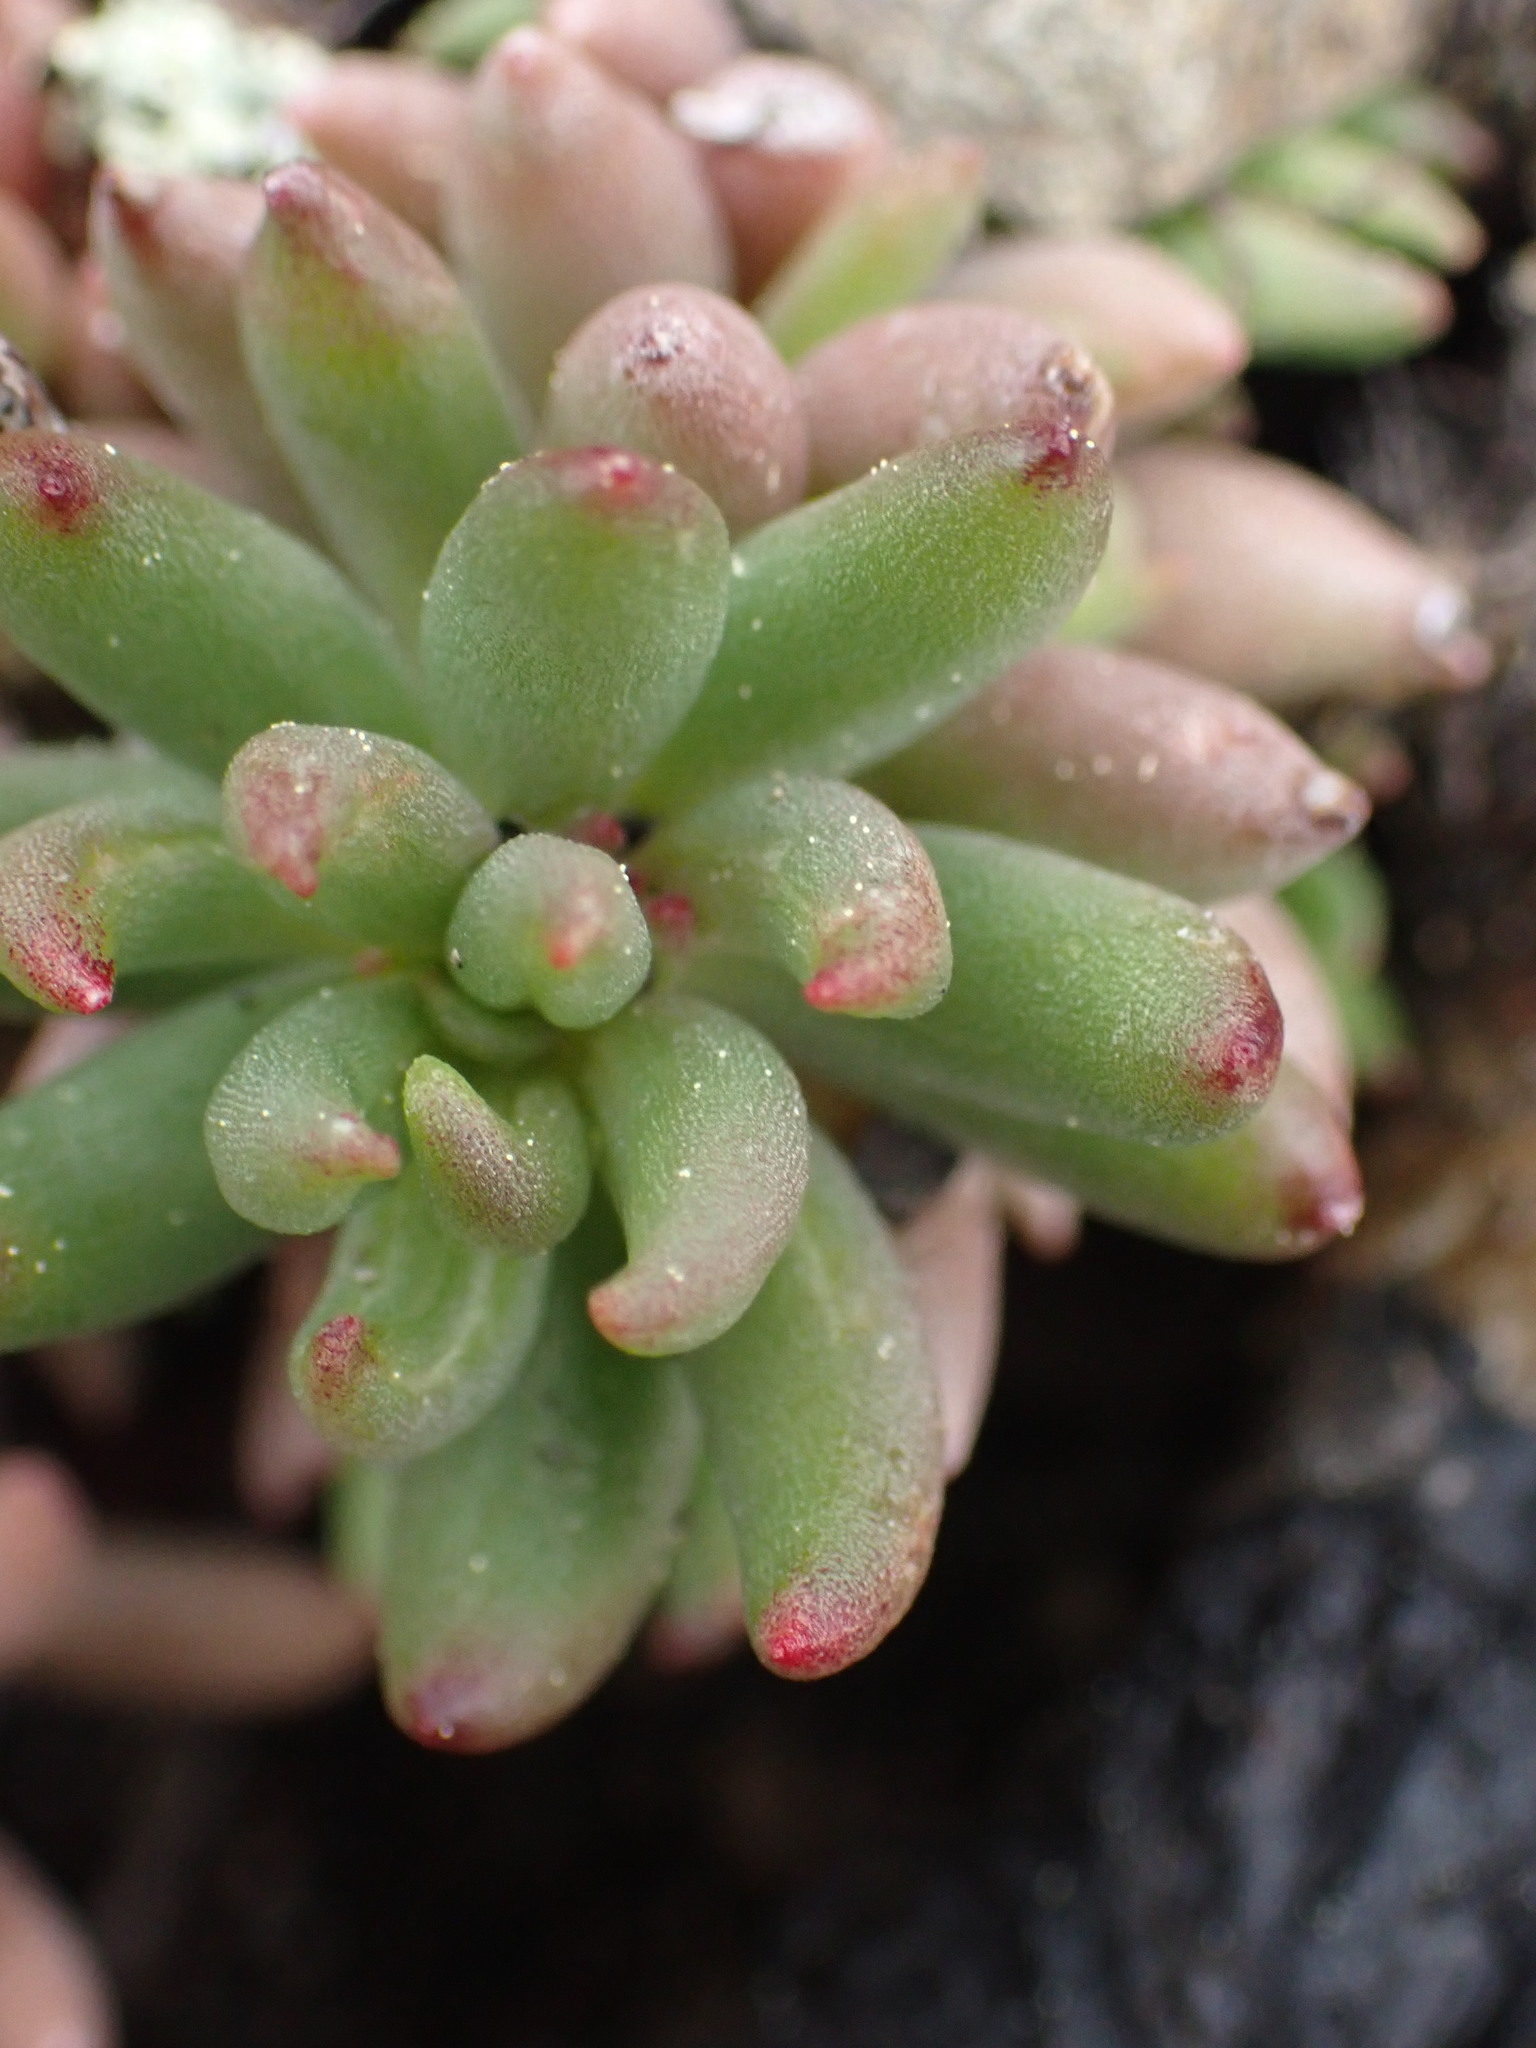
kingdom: Plantae
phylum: Tracheophyta
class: Magnoliopsida
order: Saxifragales
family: Crassulaceae
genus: Sedum
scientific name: Sedum lanceolatum
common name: Common stonecrop
